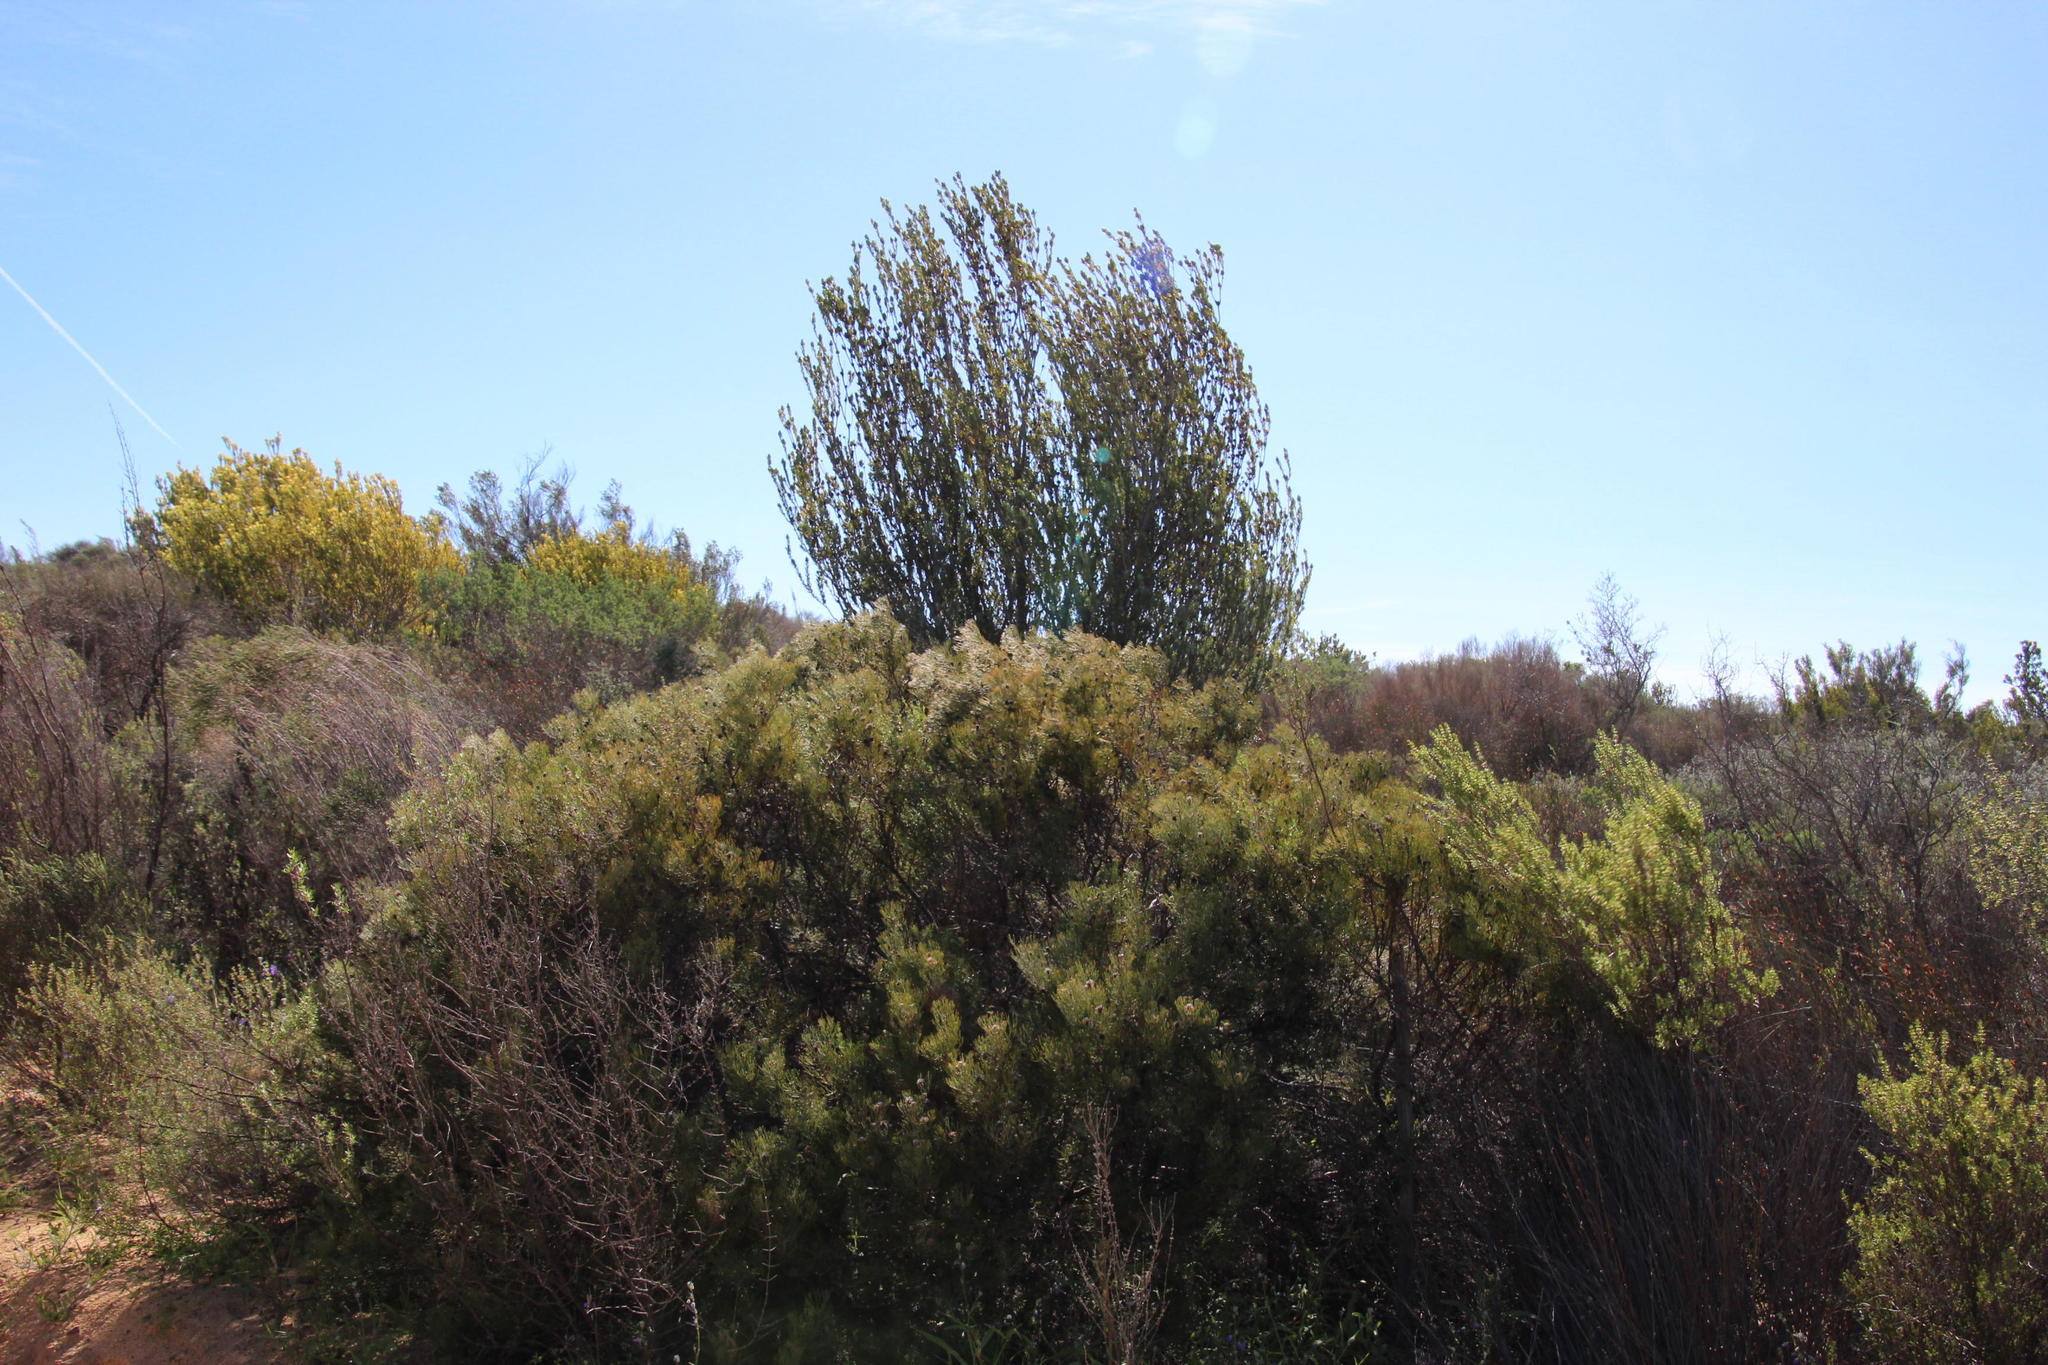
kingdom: Plantae
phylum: Tracheophyta
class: Magnoliopsida
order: Proteales
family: Proteaceae
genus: Leucadendron
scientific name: Leucadendron procerum
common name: Ivory conebush
